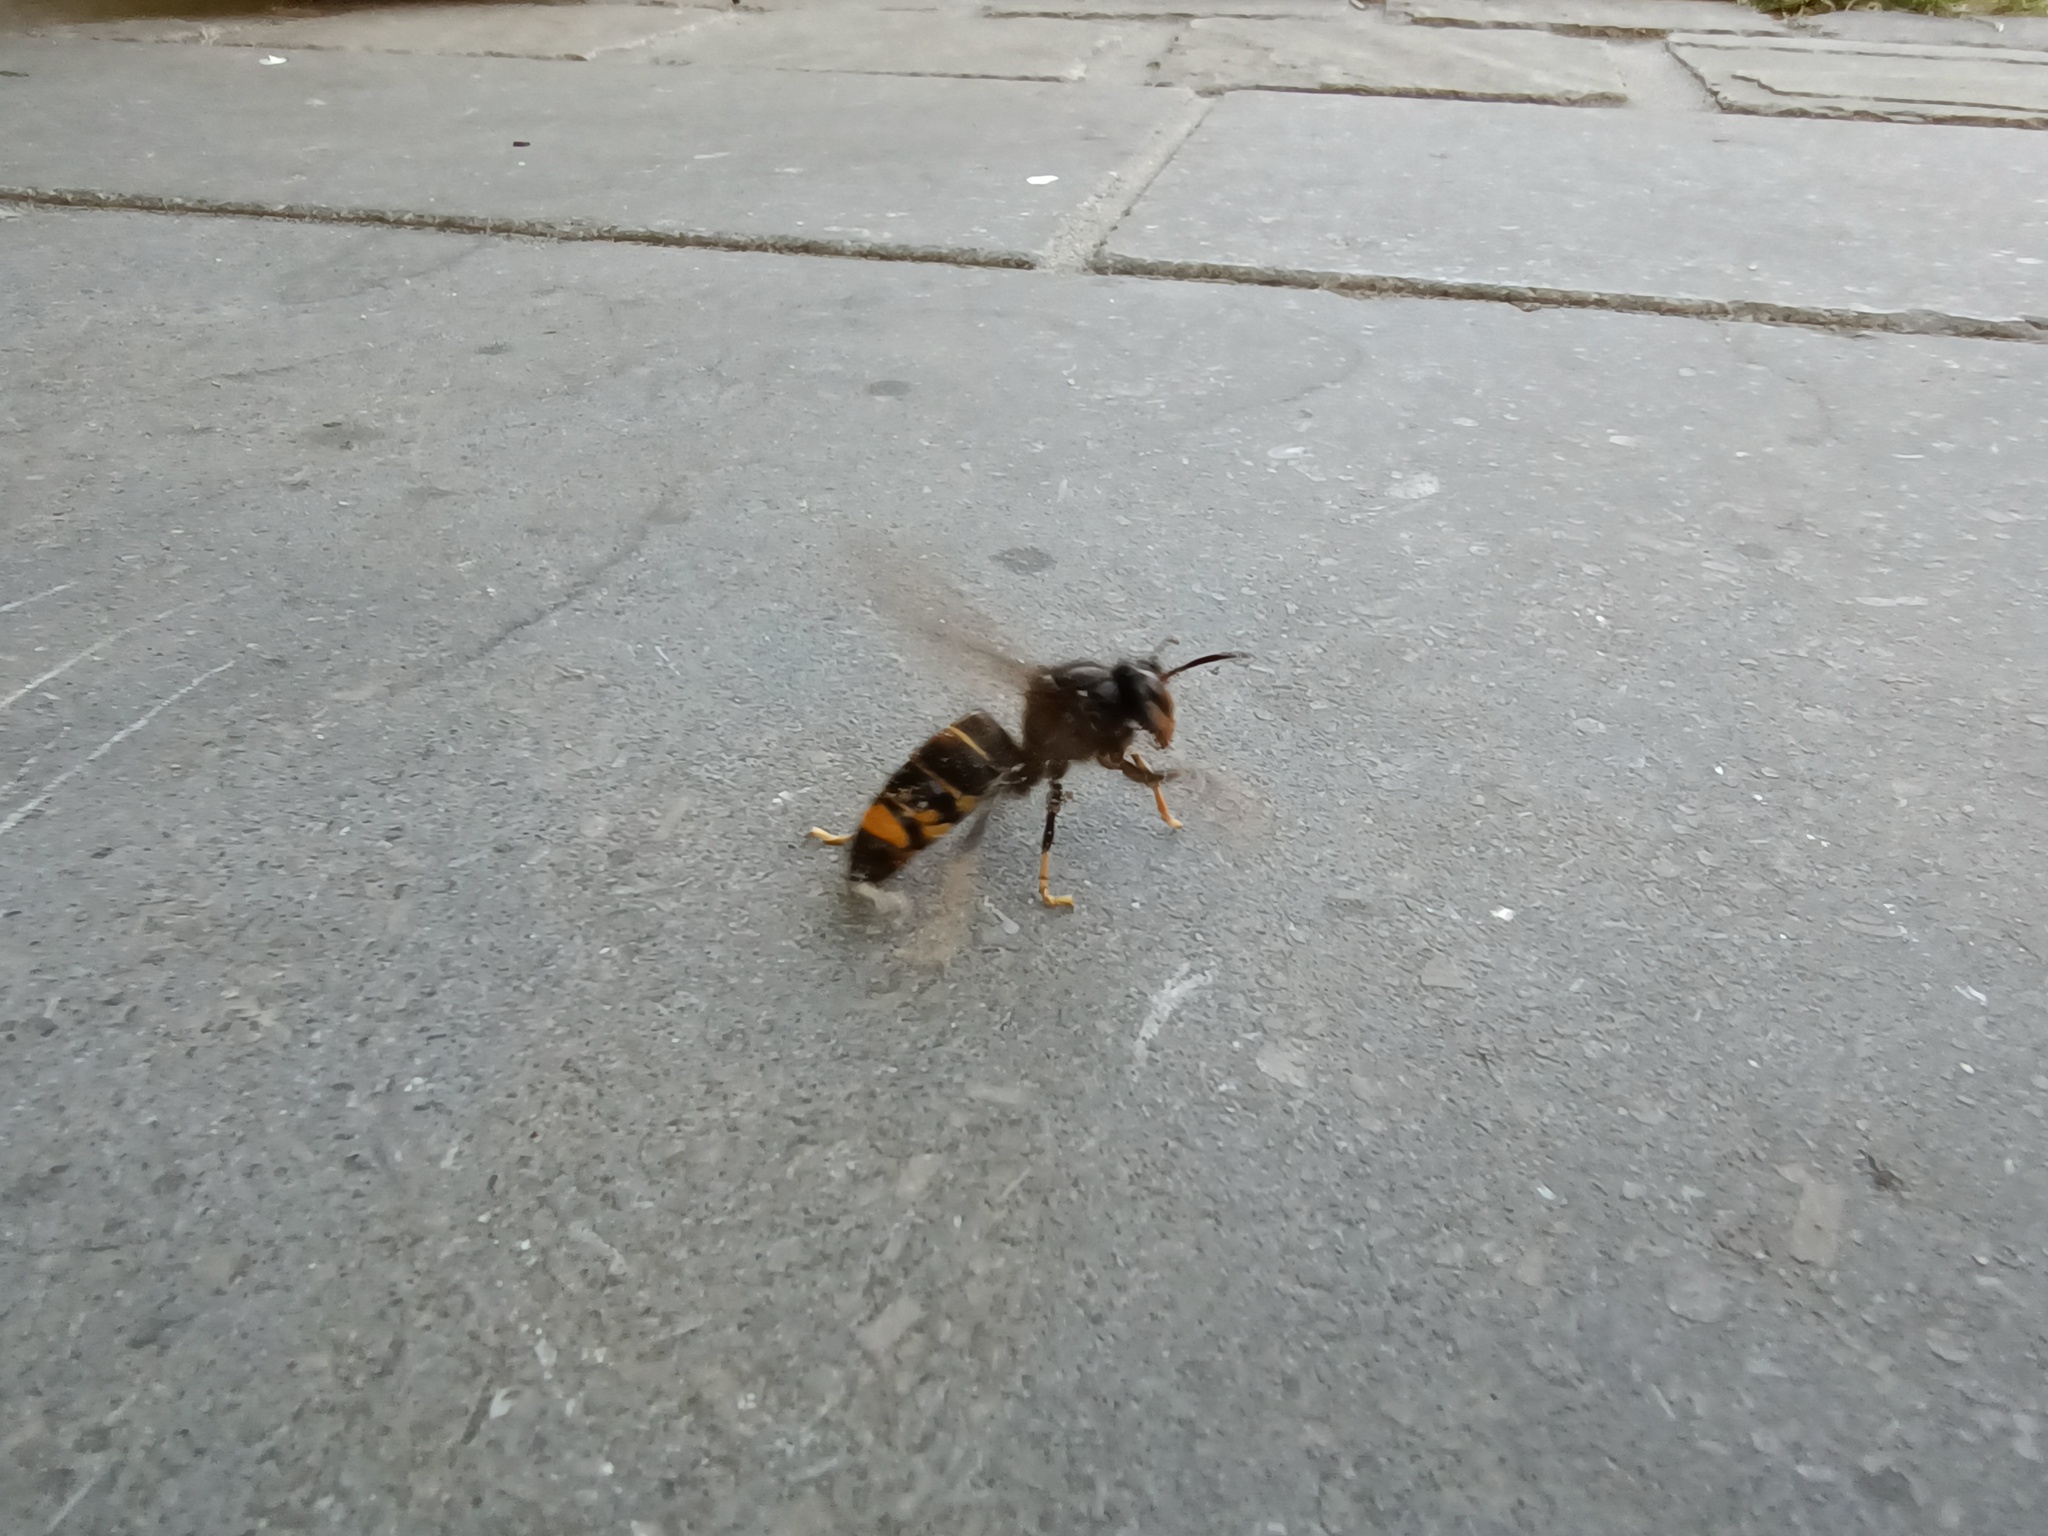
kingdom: Animalia
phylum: Arthropoda
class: Insecta
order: Hymenoptera
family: Vespidae
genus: Vespa
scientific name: Vespa velutina
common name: Asian hornet
